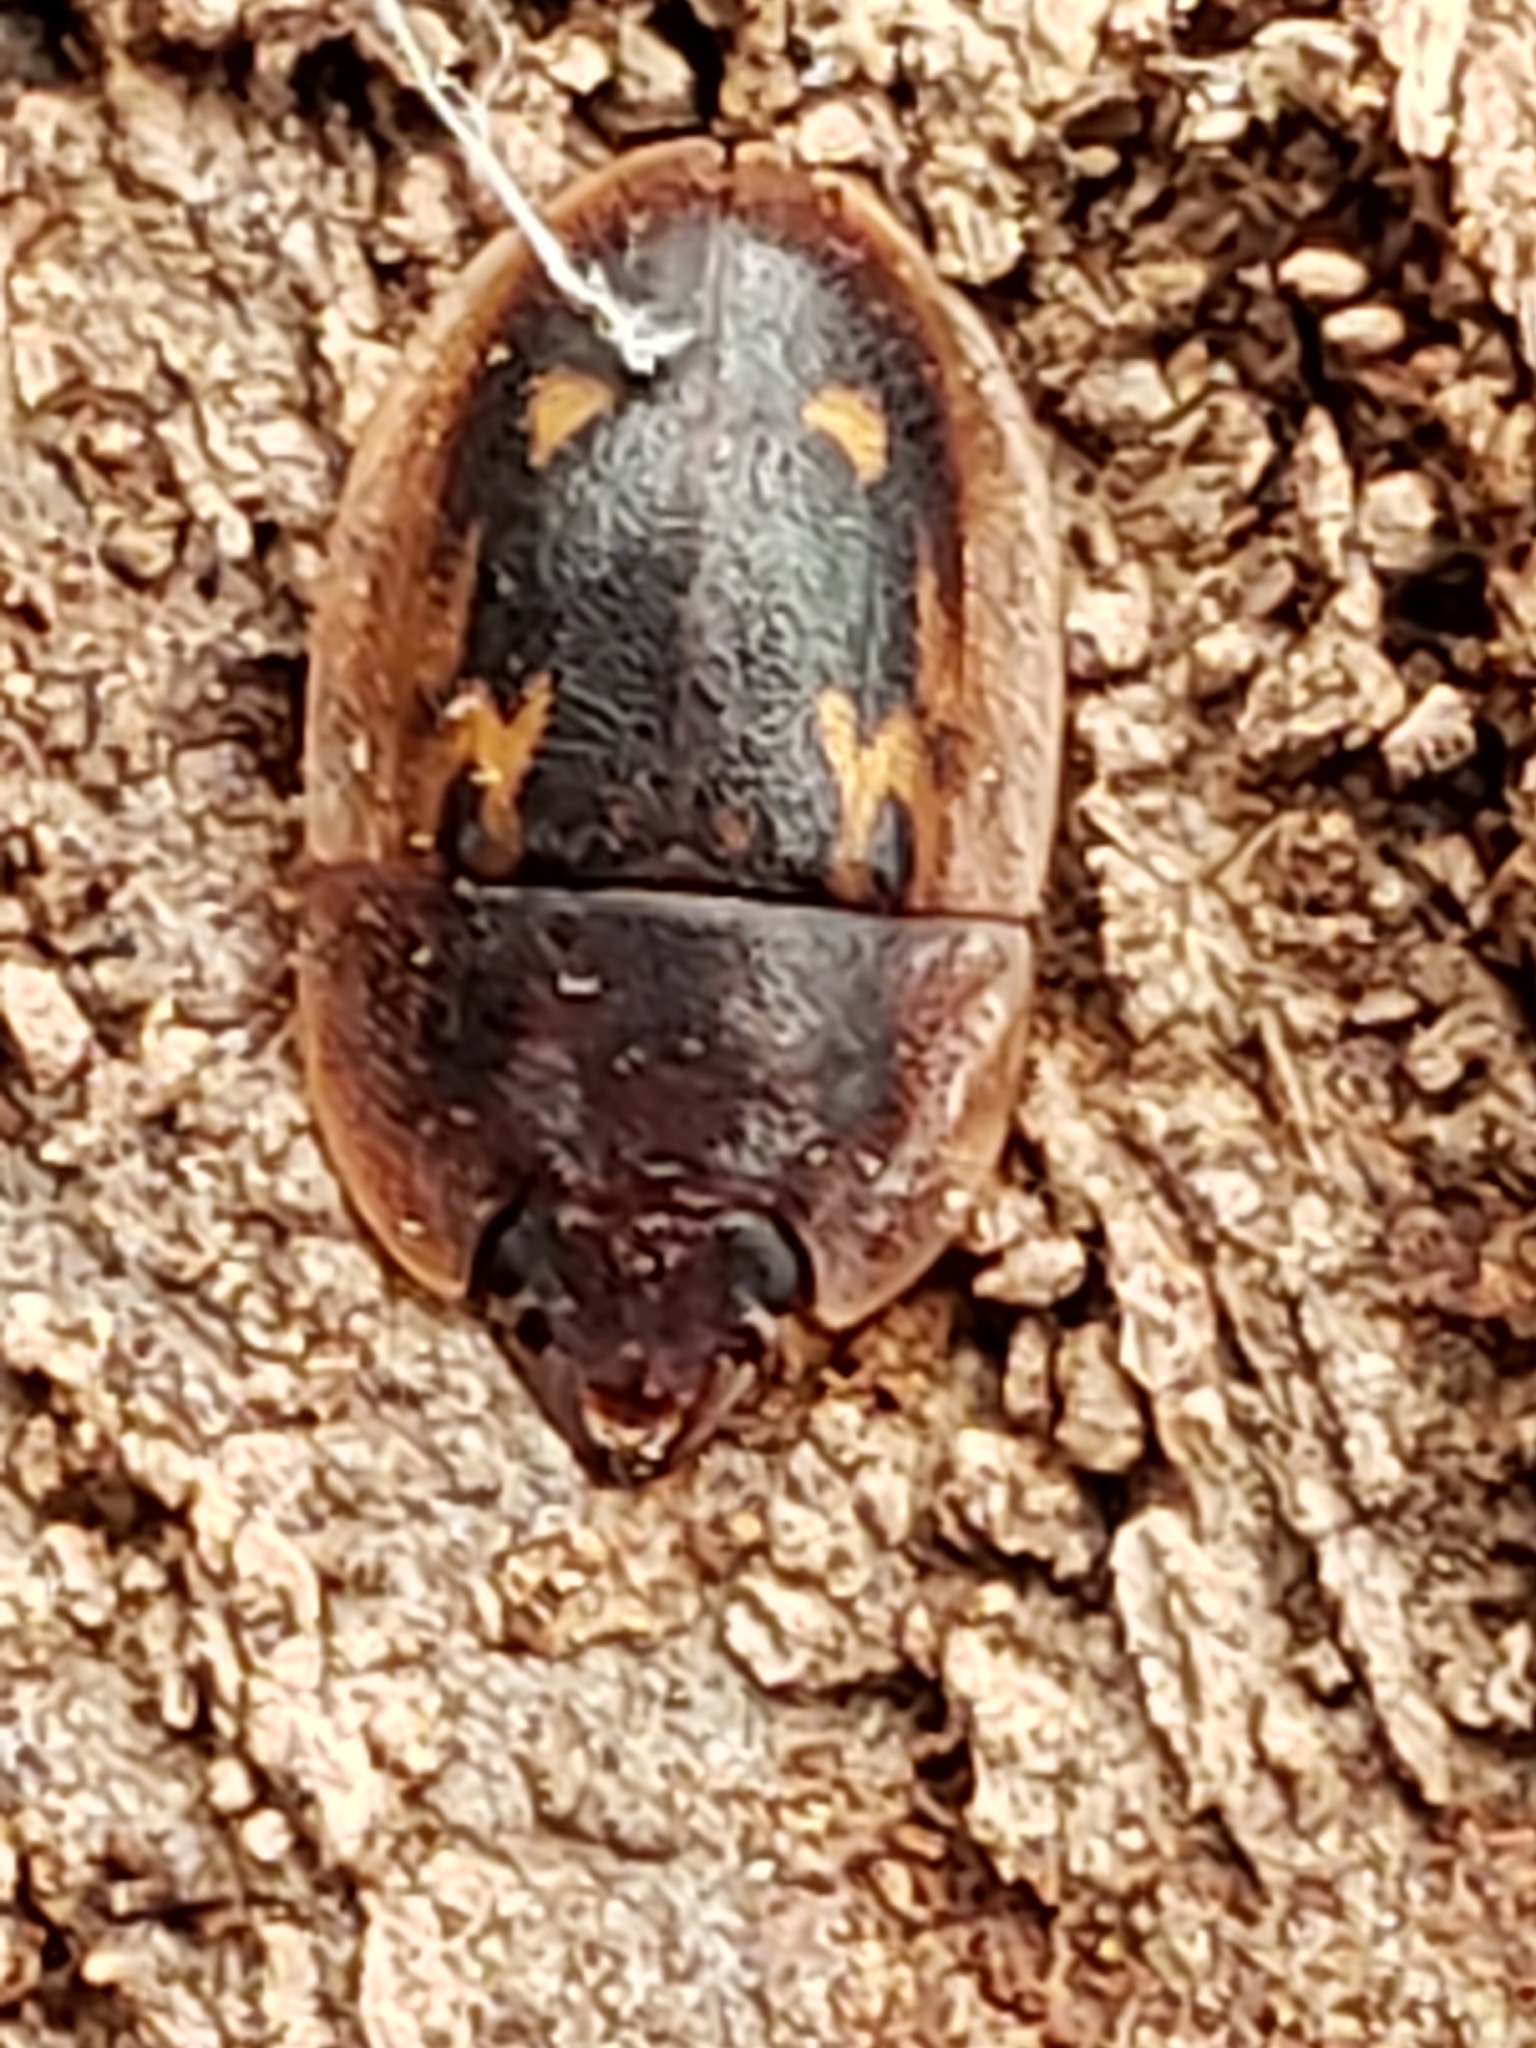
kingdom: Animalia
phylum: Arthropoda
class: Insecta
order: Coleoptera
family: Nitidulidae
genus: Prometopia
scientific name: Prometopia sexmaculata
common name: Six-spotted sap-feeding beetle
